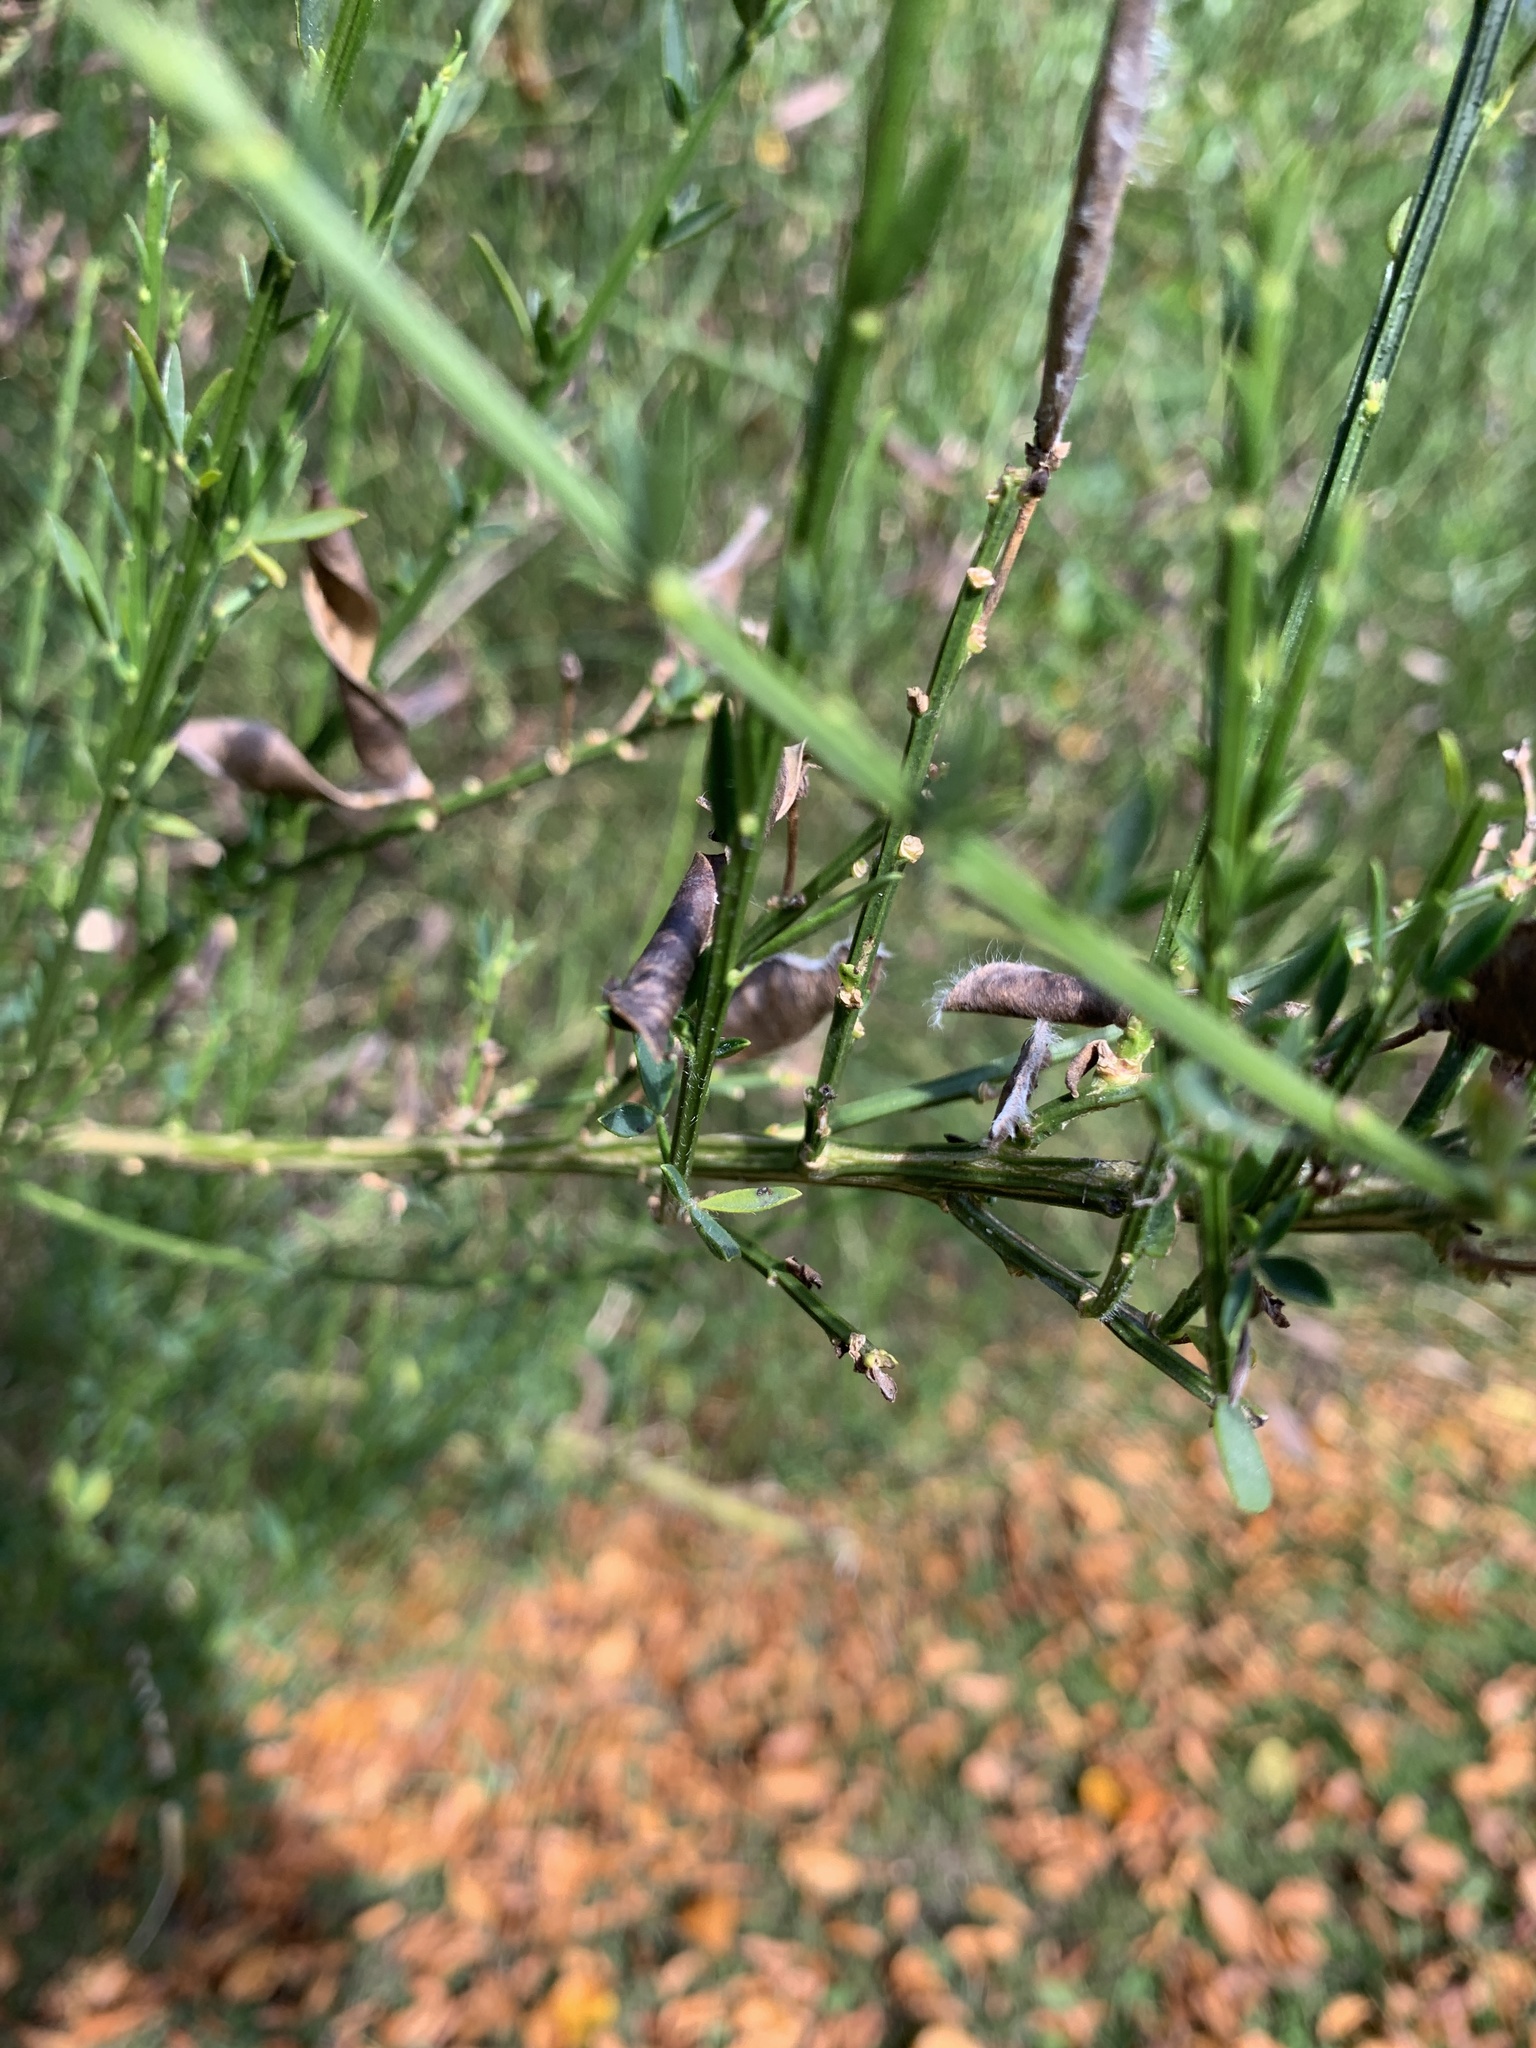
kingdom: Plantae
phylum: Tracheophyta
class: Magnoliopsida
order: Fabales
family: Fabaceae
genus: Cytisus
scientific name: Cytisus scoparius
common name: Scotch broom
